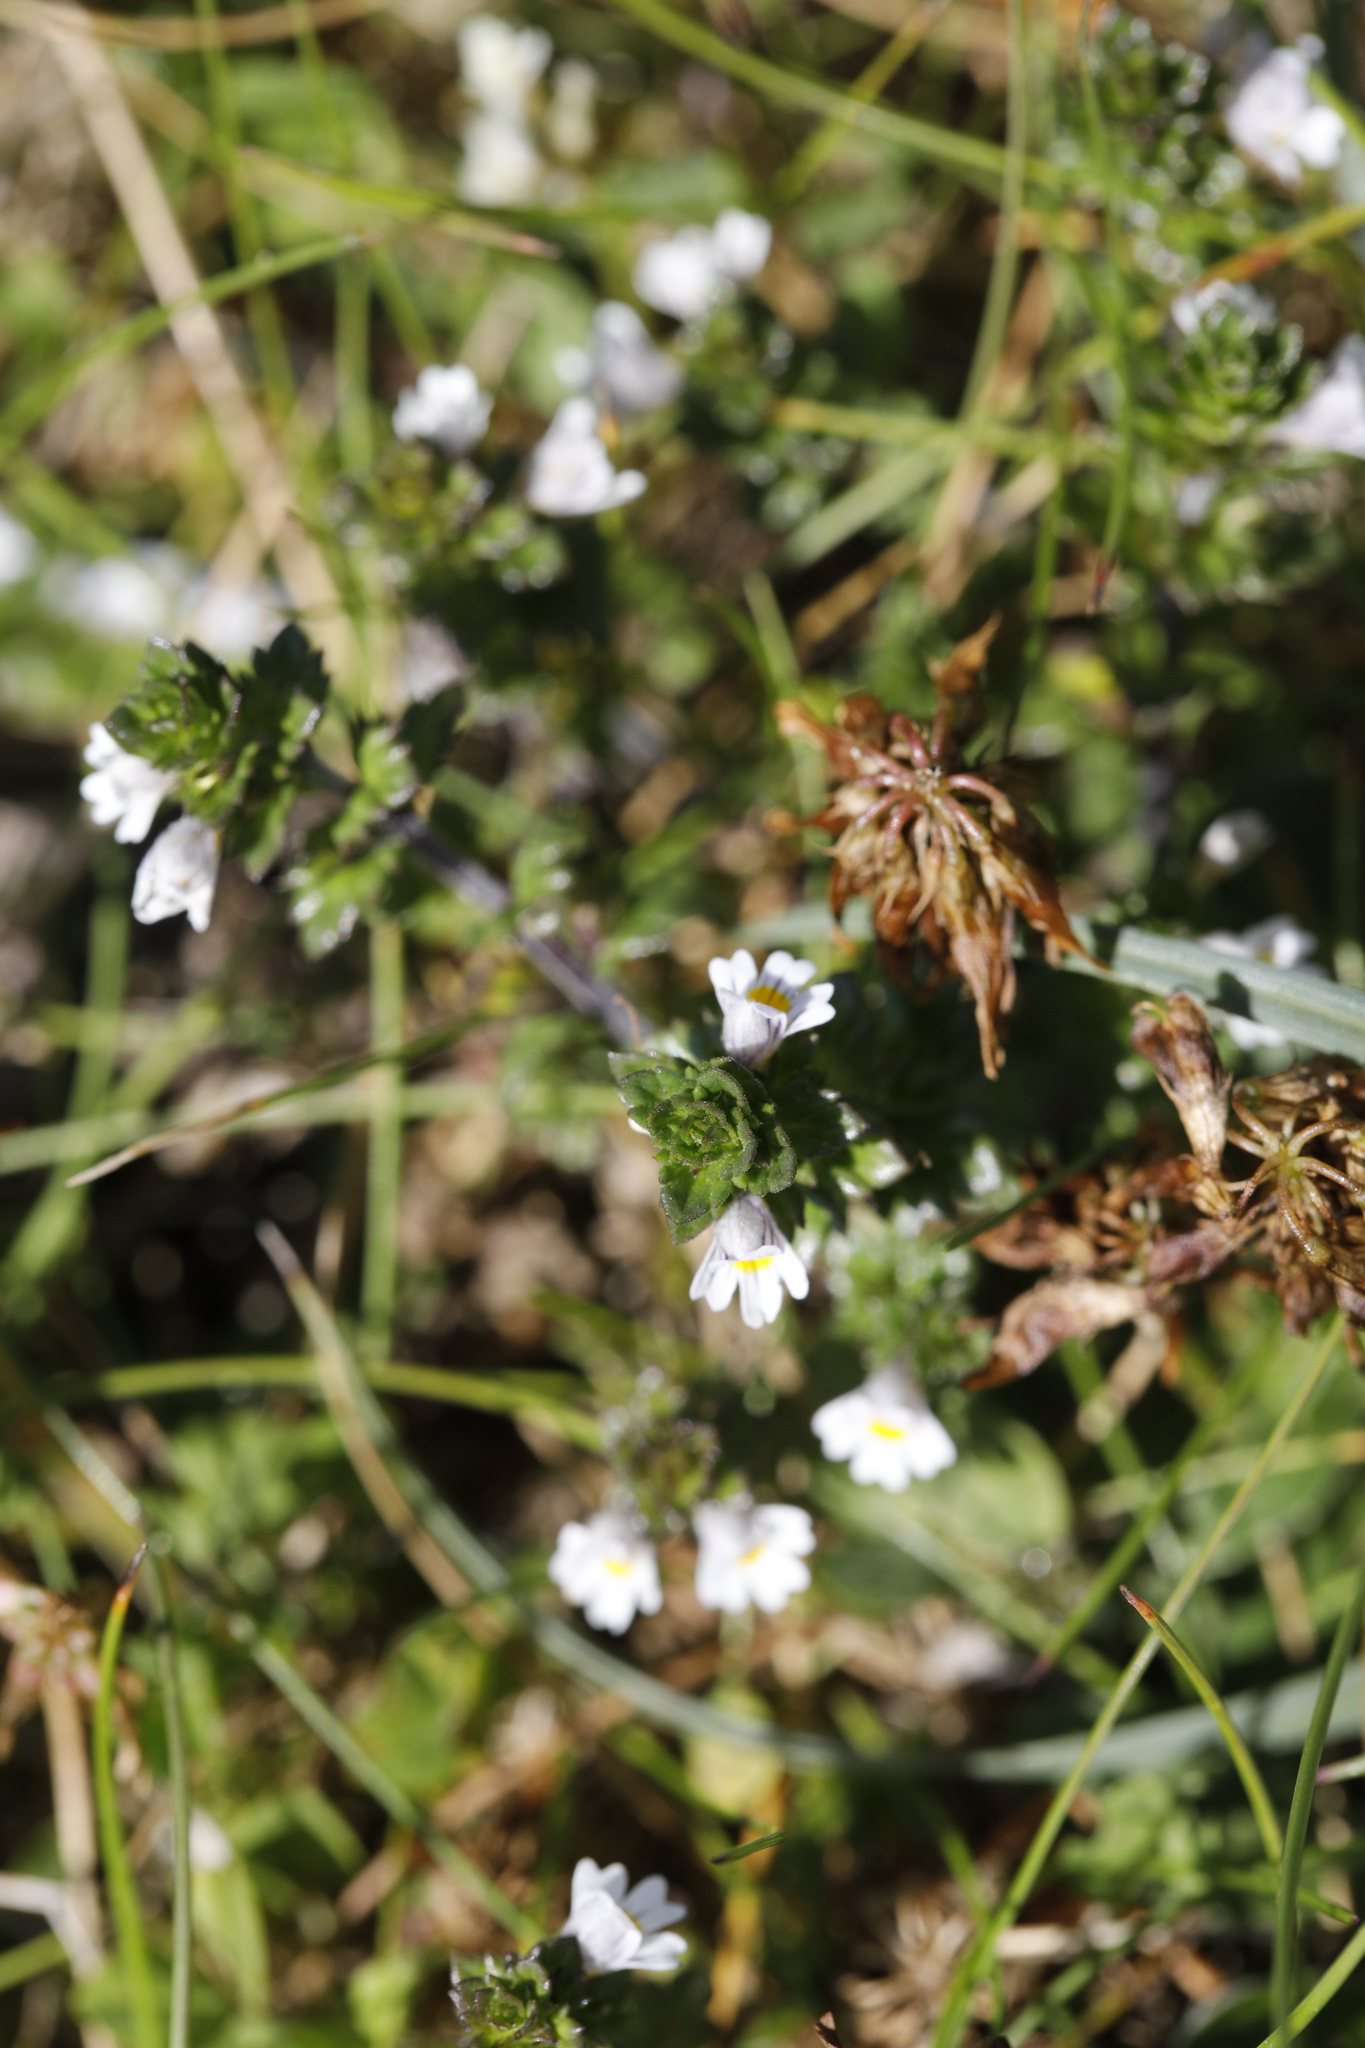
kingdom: Plantae
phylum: Tracheophyta
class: Magnoliopsida
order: Lamiales
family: Orobanchaceae
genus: Euphrasia
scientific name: Euphrasia nemorosa
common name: Common eyebright
